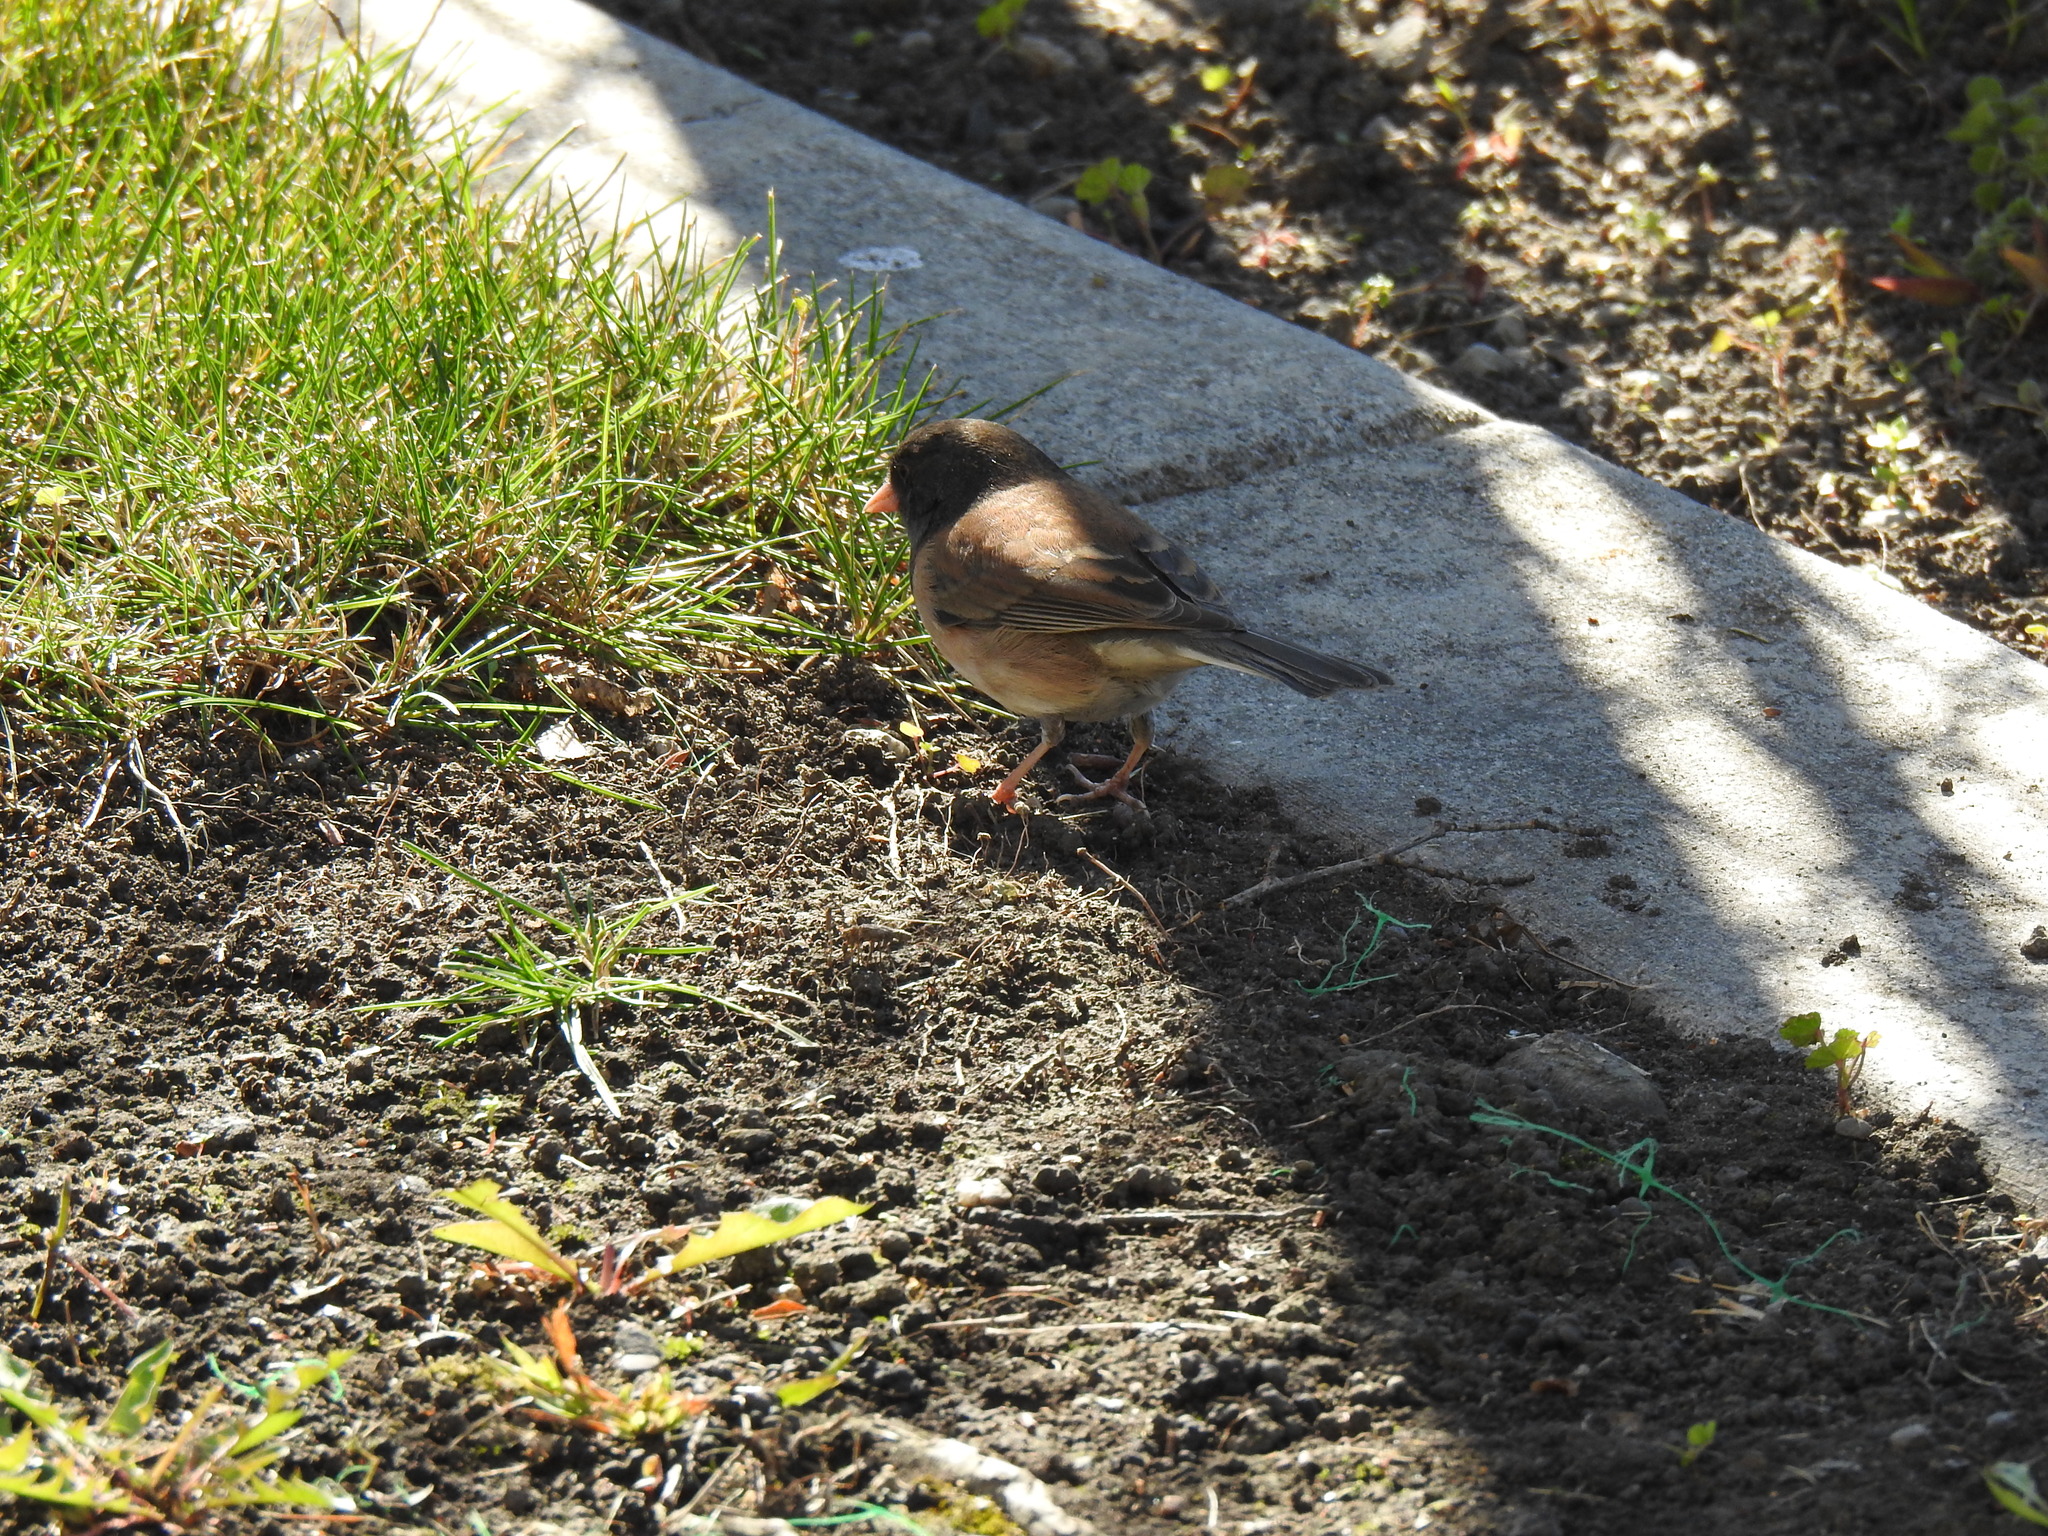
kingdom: Animalia
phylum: Chordata
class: Aves
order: Passeriformes
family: Passerellidae
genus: Junco
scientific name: Junco hyemalis
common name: Dark-eyed junco
